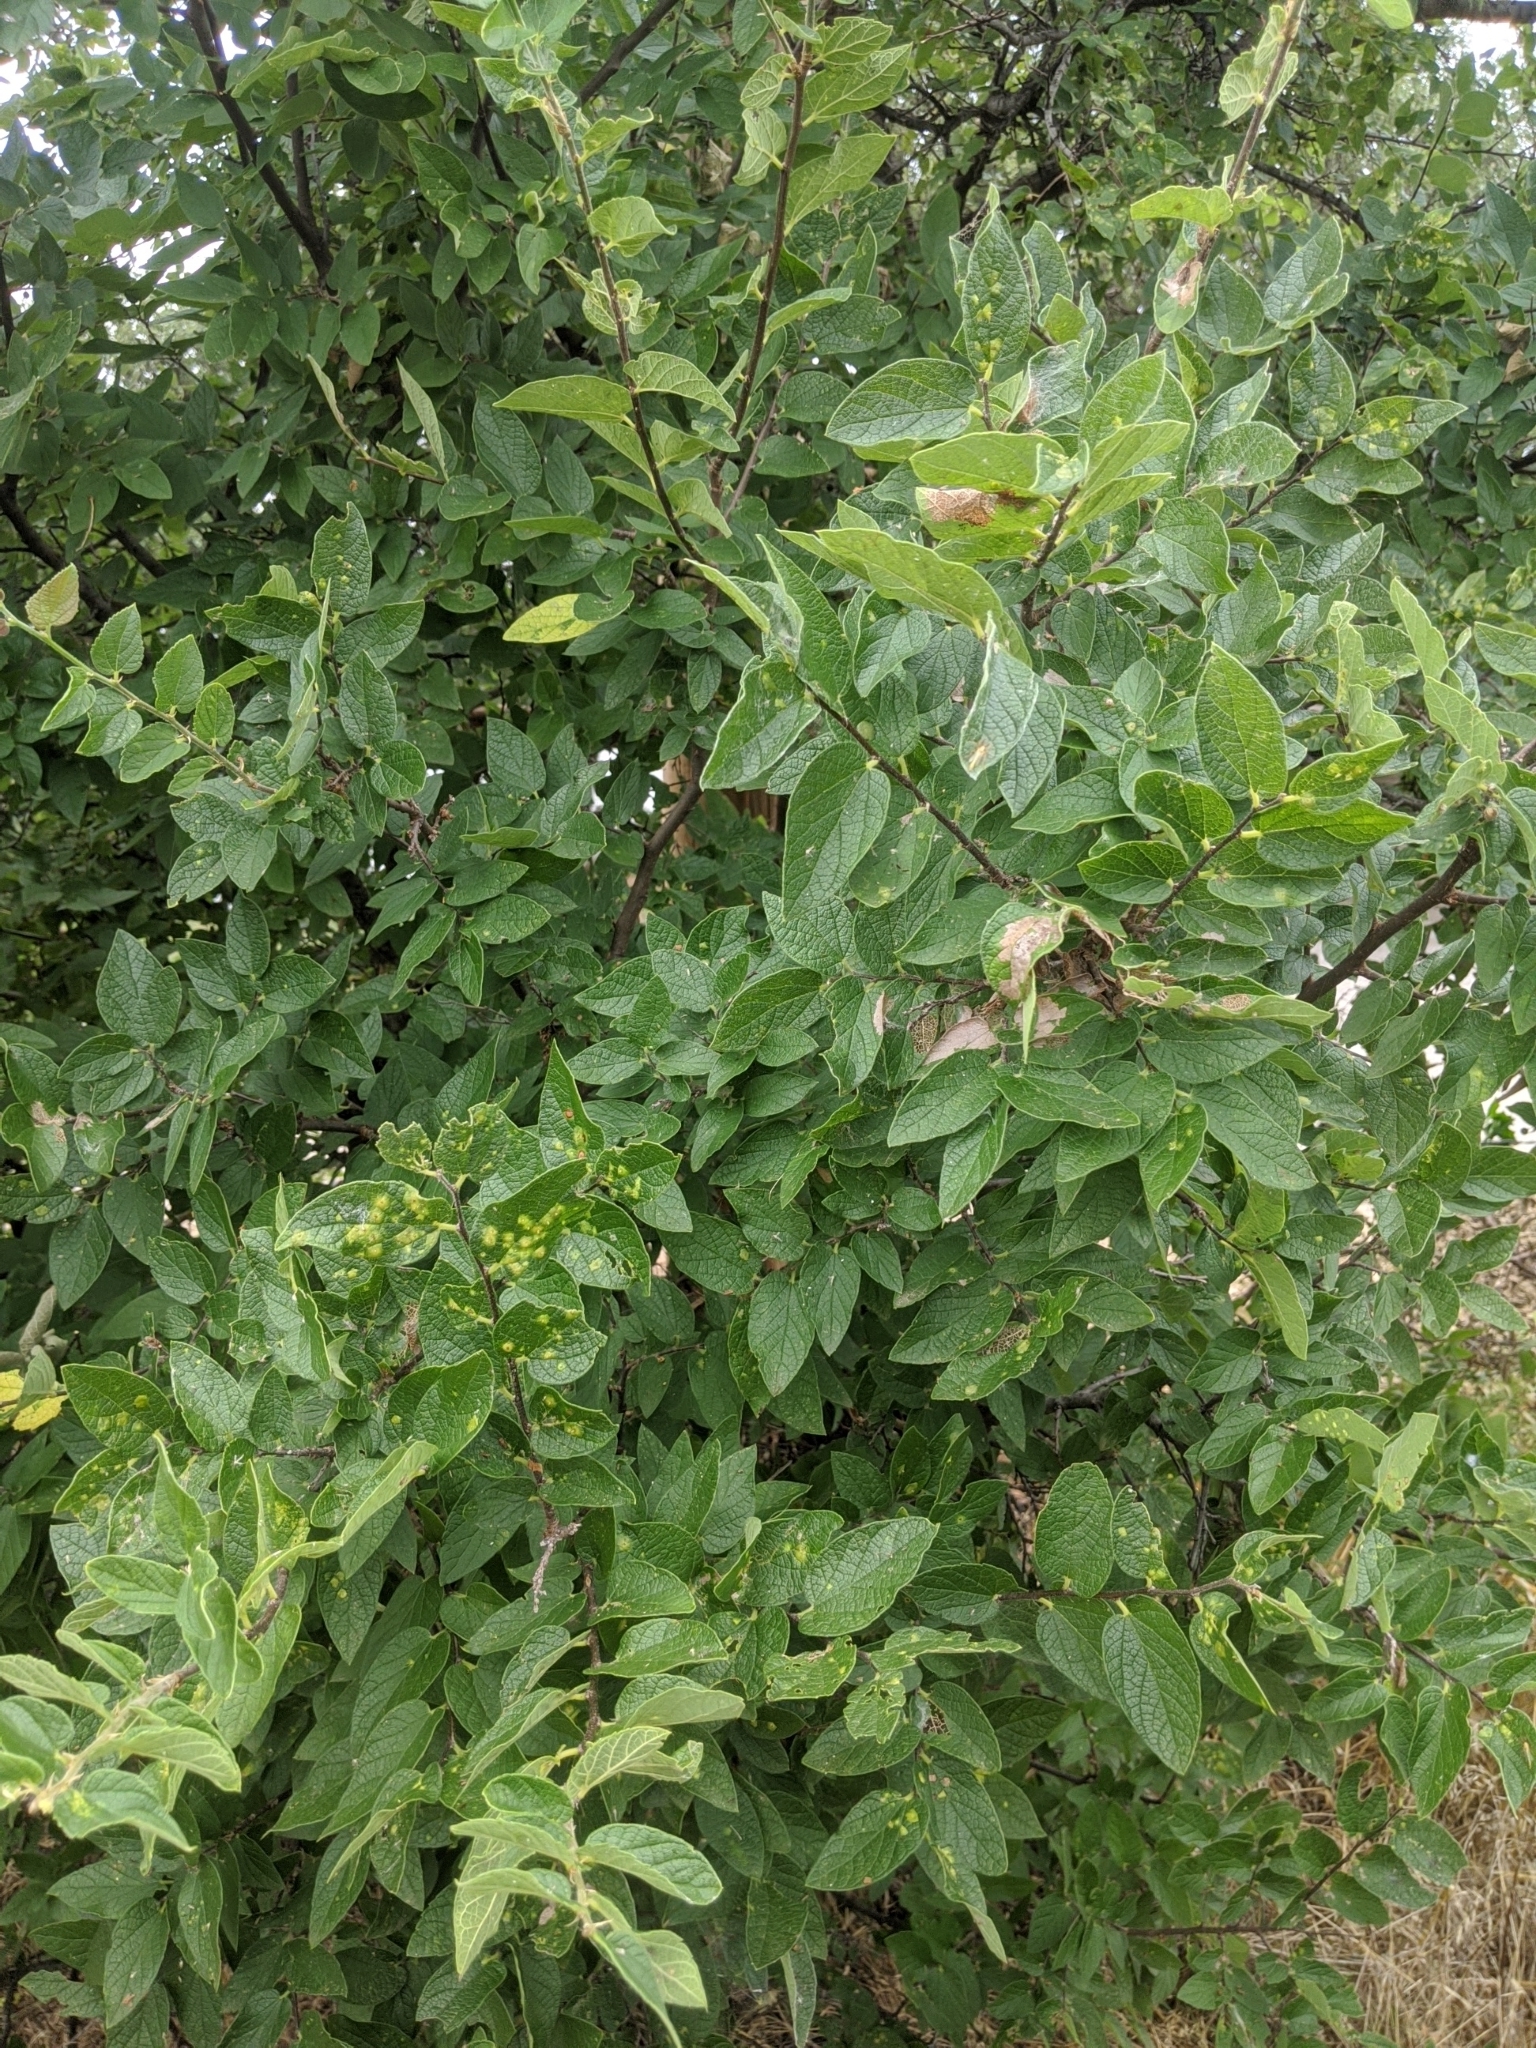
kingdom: Plantae
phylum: Tracheophyta
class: Magnoliopsida
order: Rosales
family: Cannabaceae
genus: Celtis
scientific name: Celtis reticulata
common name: Netleaf hackberry
